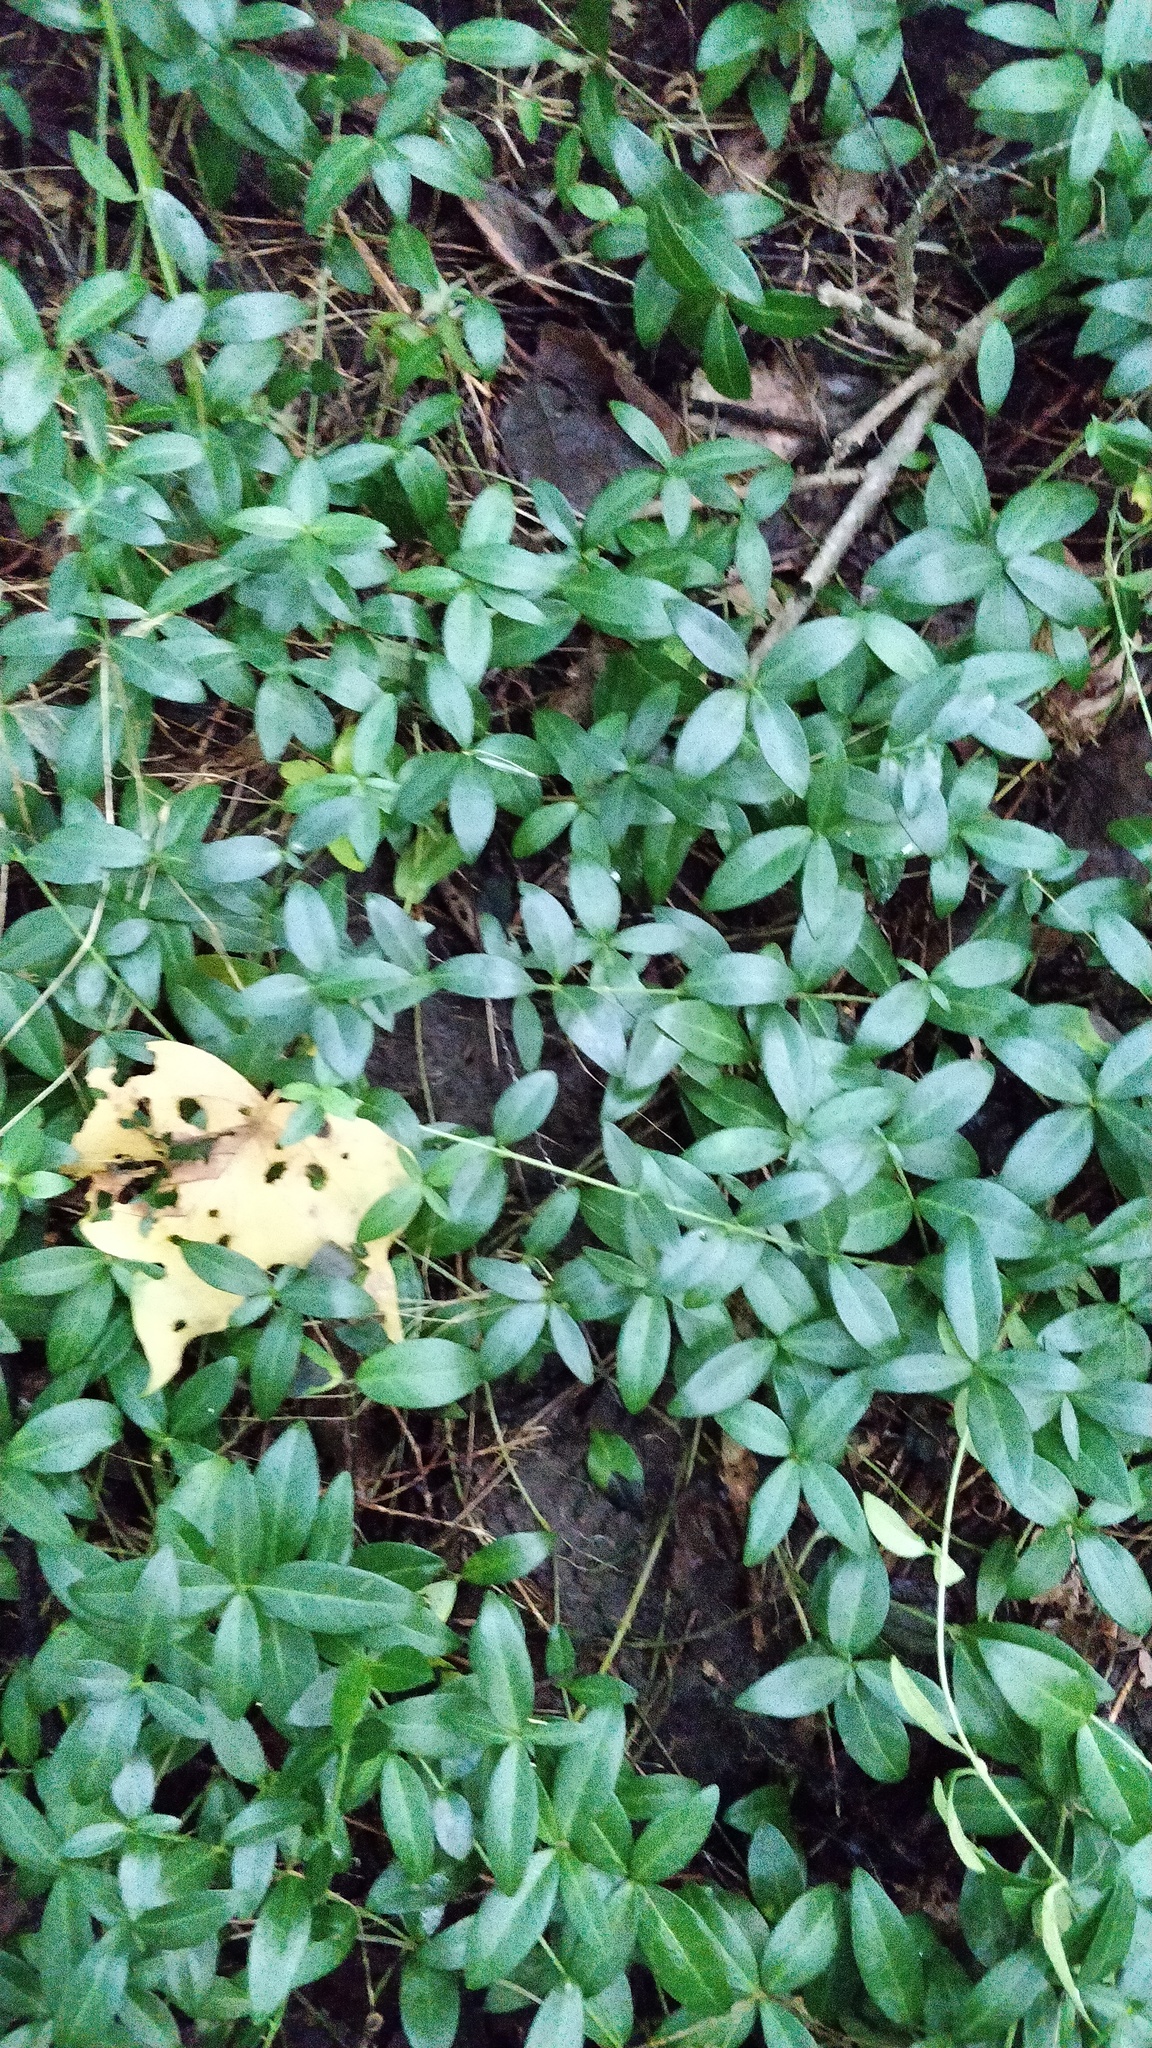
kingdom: Plantae
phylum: Tracheophyta
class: Magnoliopsida
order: Gentianales
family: Apocynaceae
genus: Vinca
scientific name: Vinca minor
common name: Lesser periwinkle
